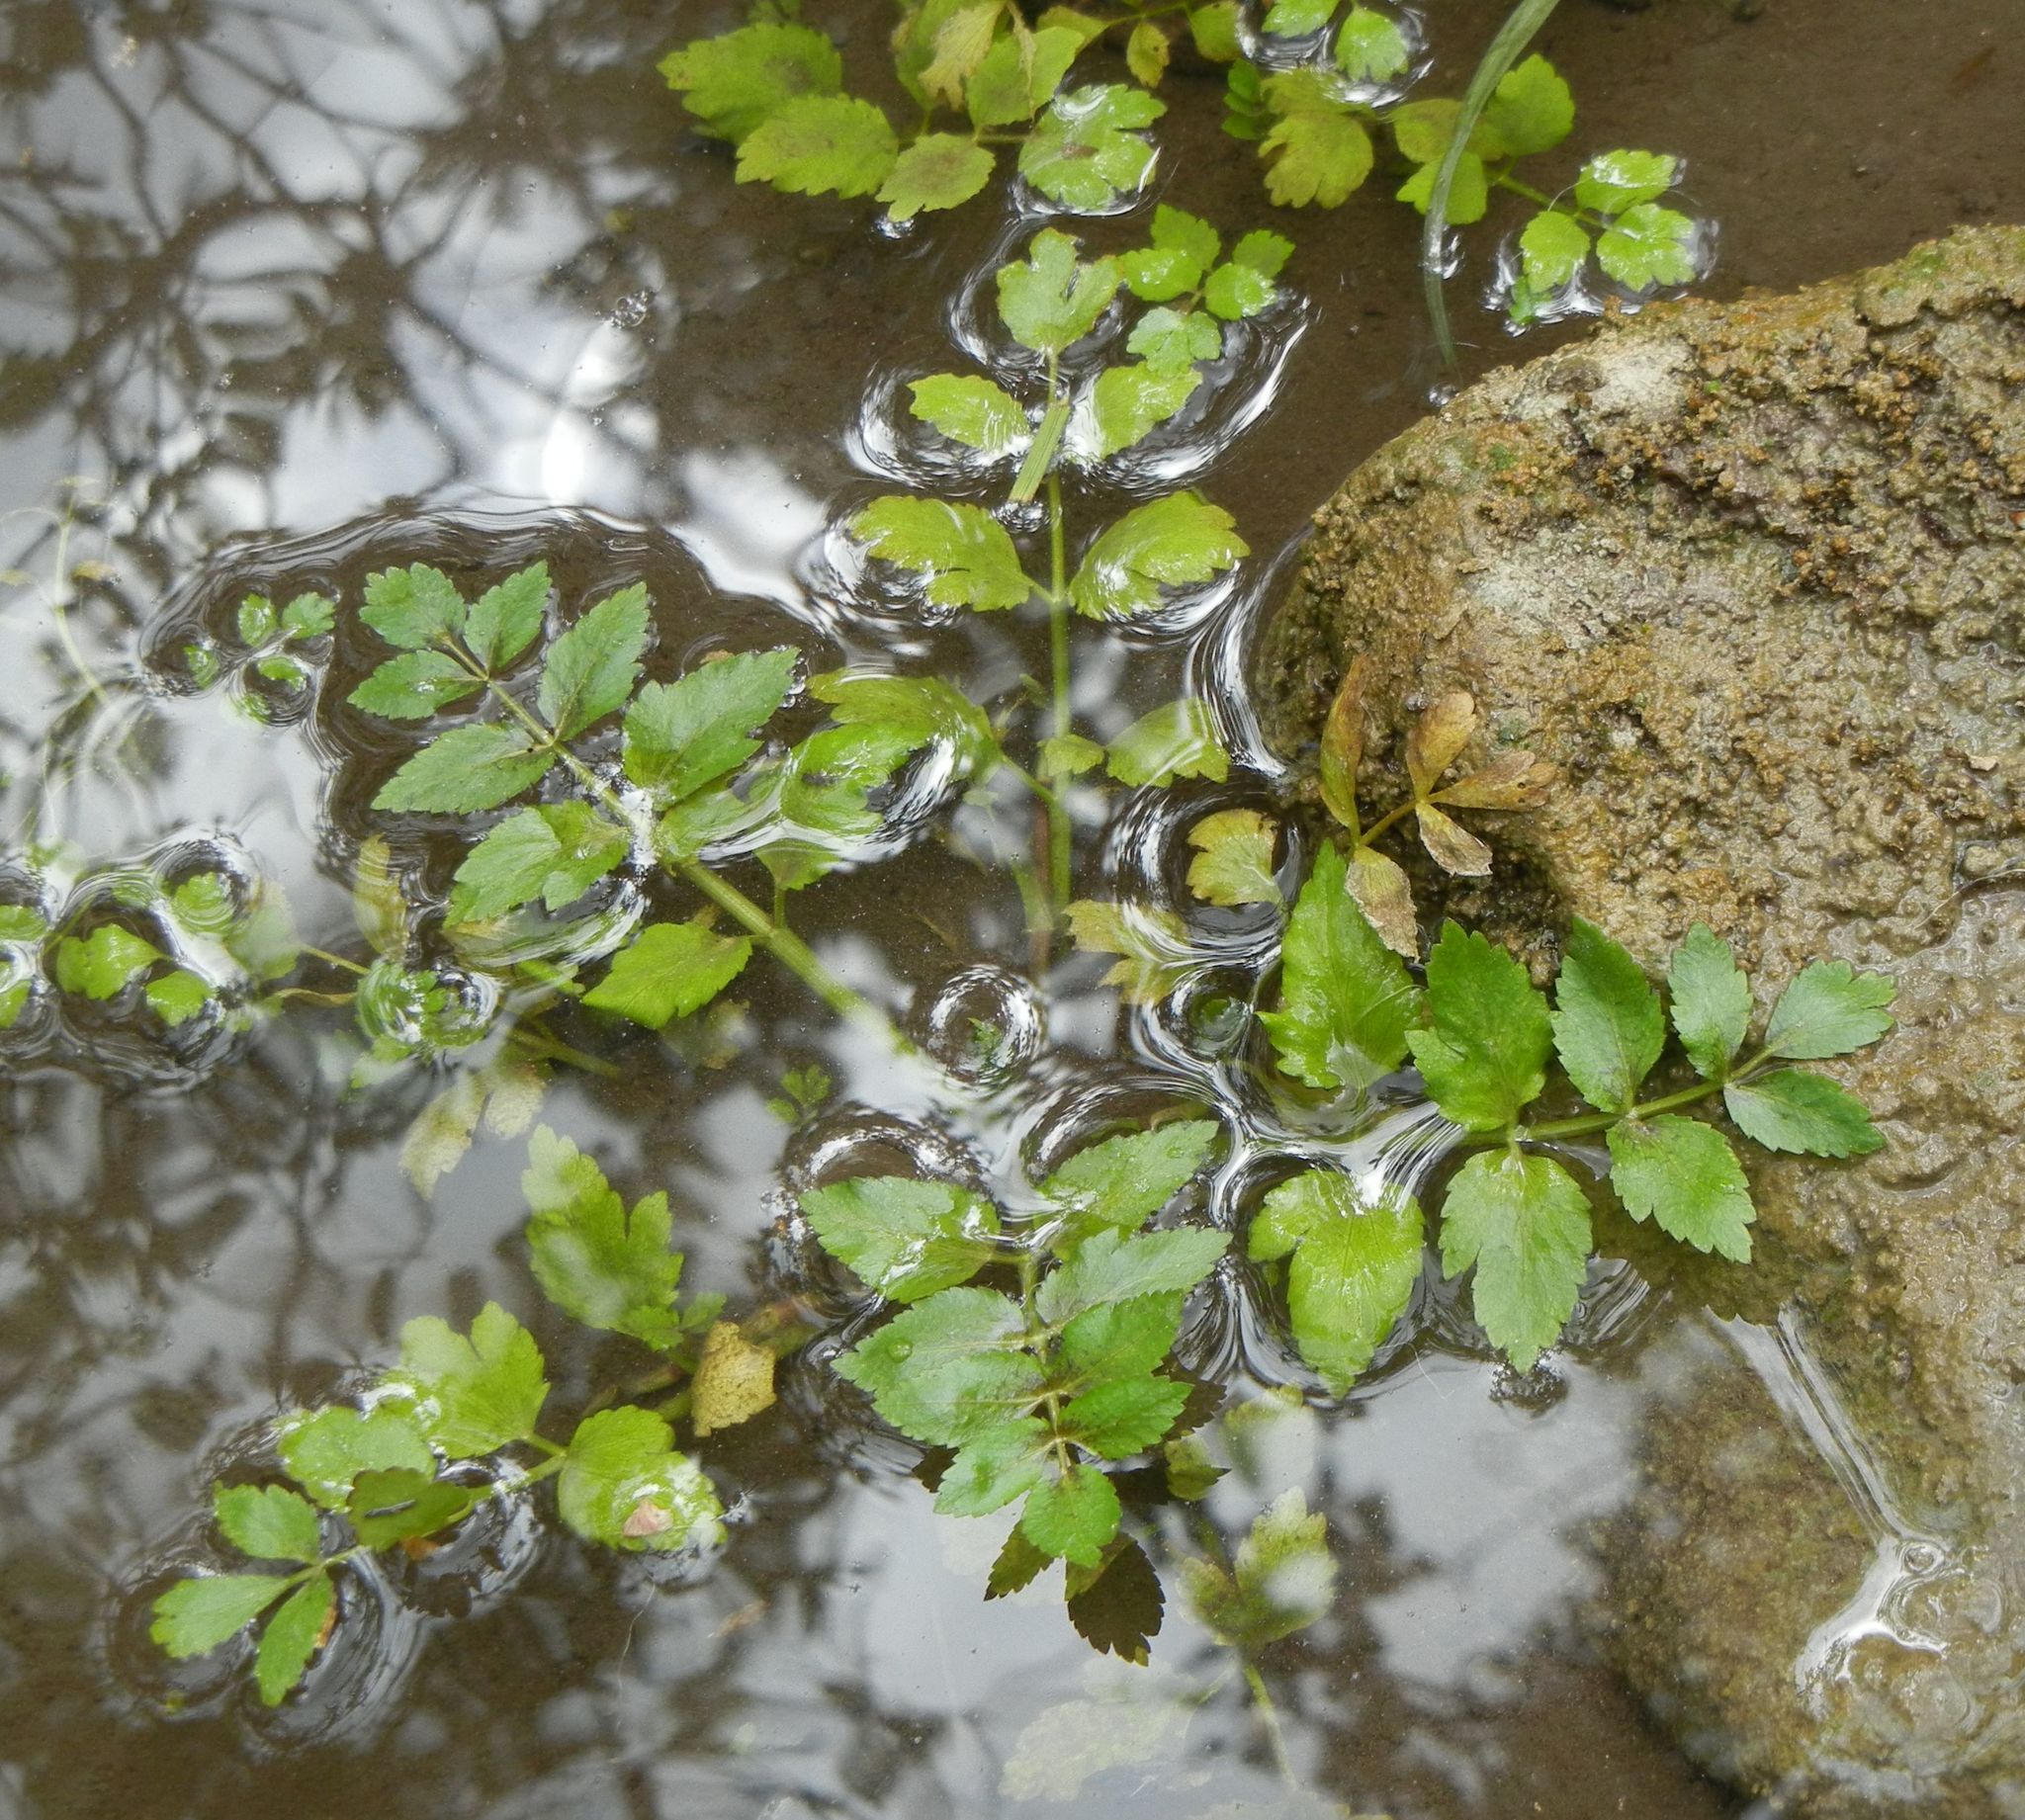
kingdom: Plantae
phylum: Tracheophyta
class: Magnoliopsida
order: Apiales
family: Apiaceae
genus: Berula
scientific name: Berula erecta
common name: Lesser water-parsnip
